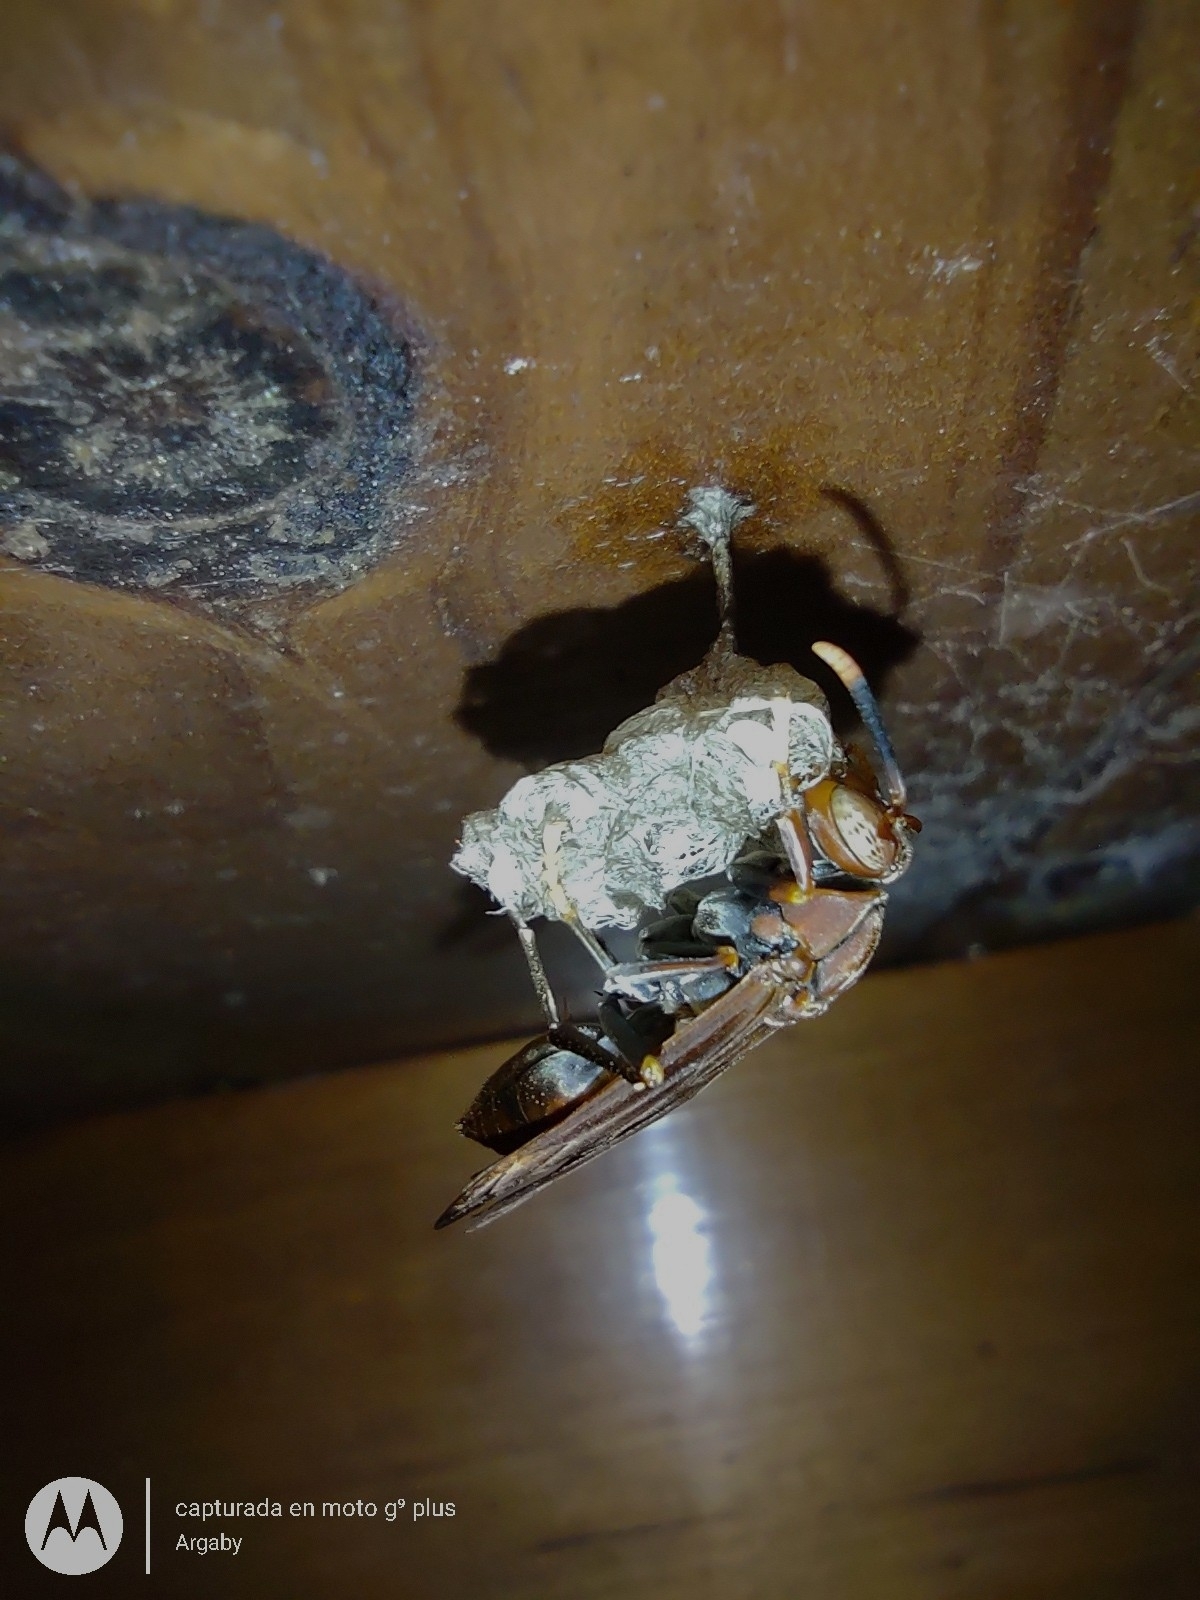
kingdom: Animalia
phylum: Arthropoda
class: Insecta
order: Hymenoptera
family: Pompilidae
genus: Aphanilopterus
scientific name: Aphanilopterus
